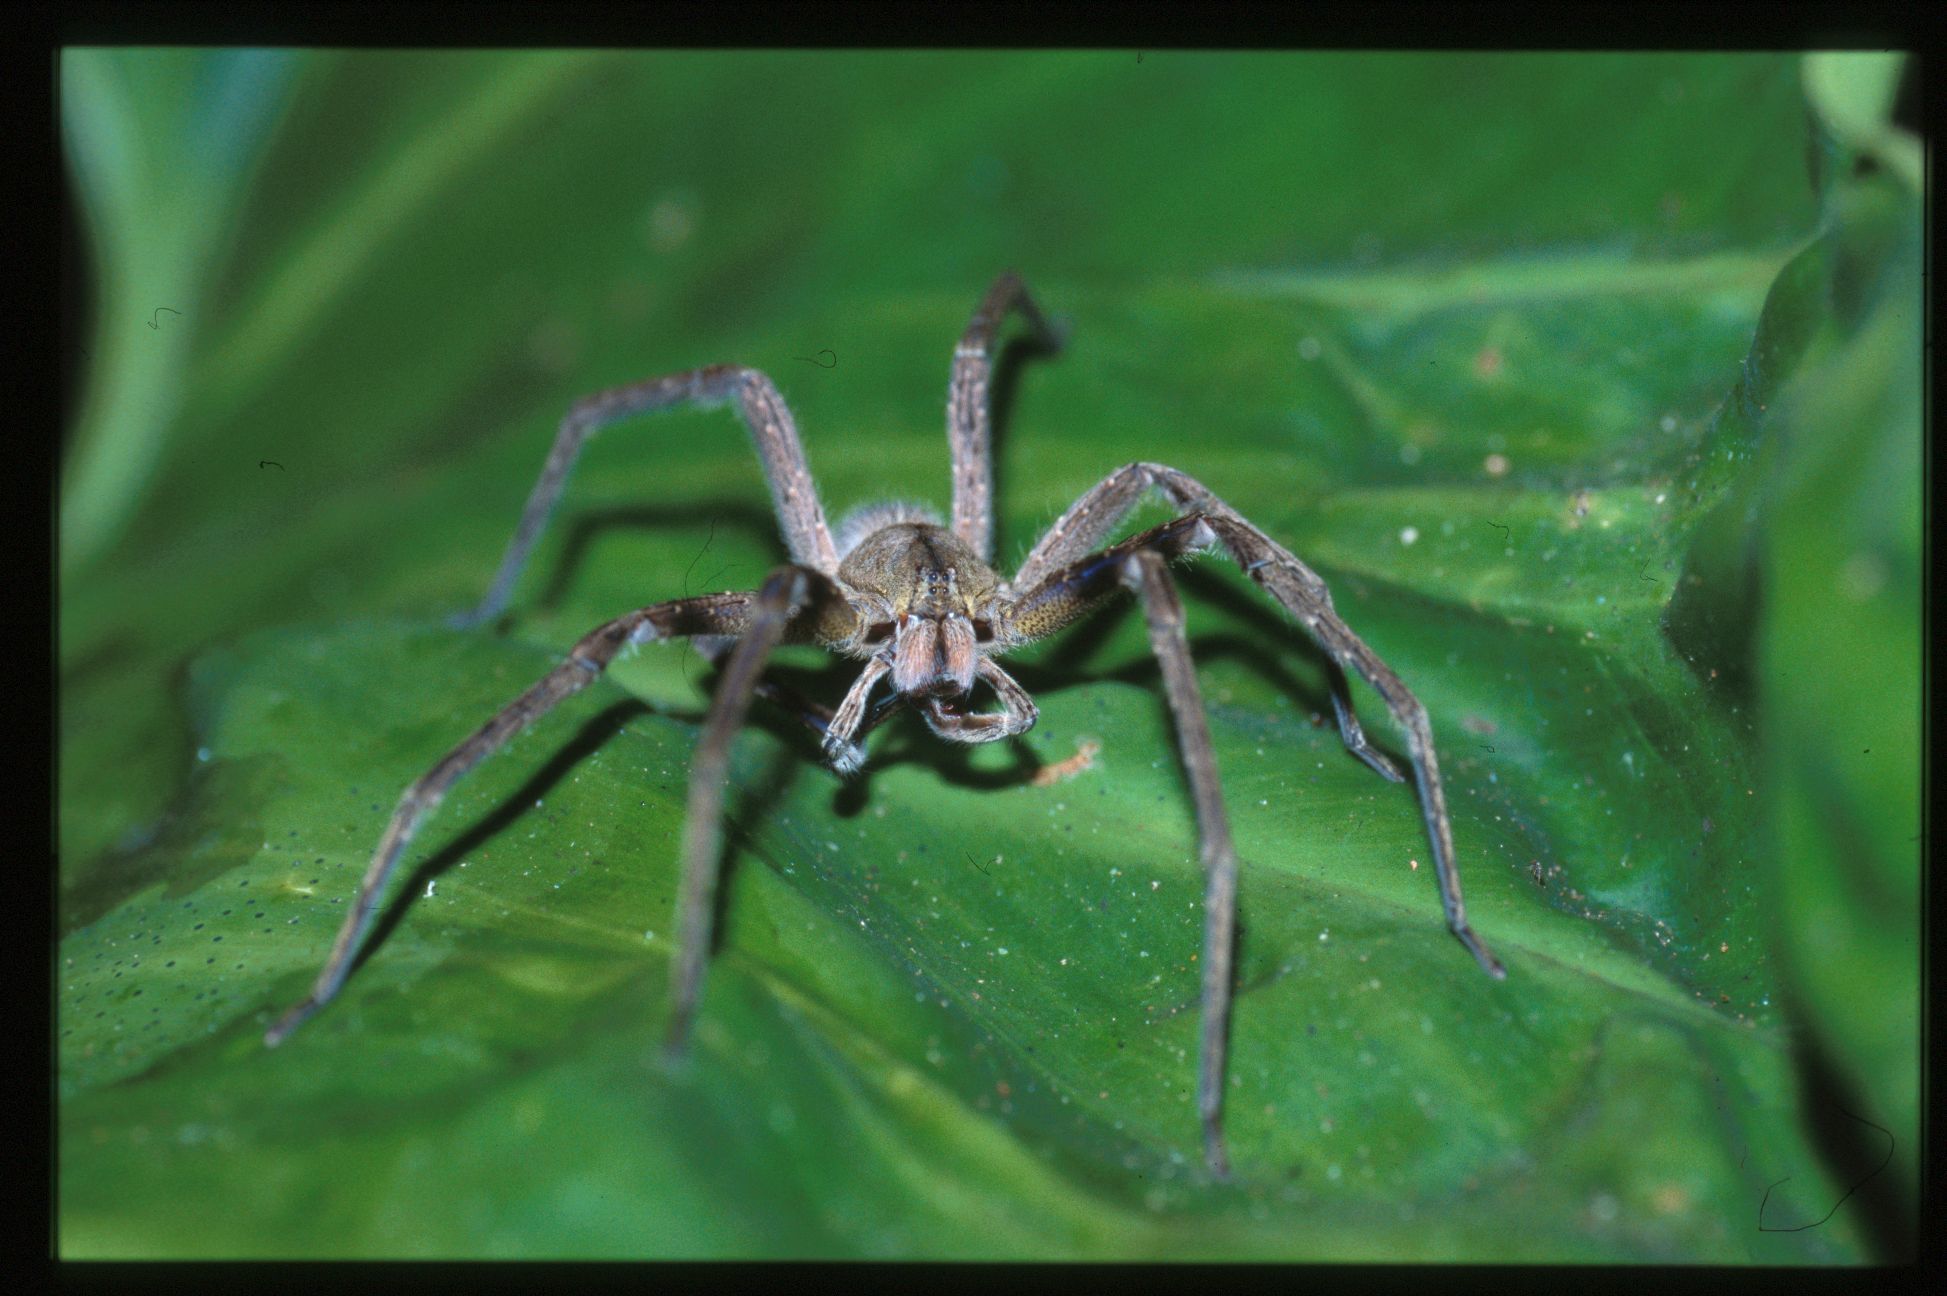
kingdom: Animalia
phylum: Arthropoda
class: Arachnida
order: Araneae
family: Ctenidae
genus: Phoneutria
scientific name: Phoneutria depilata
